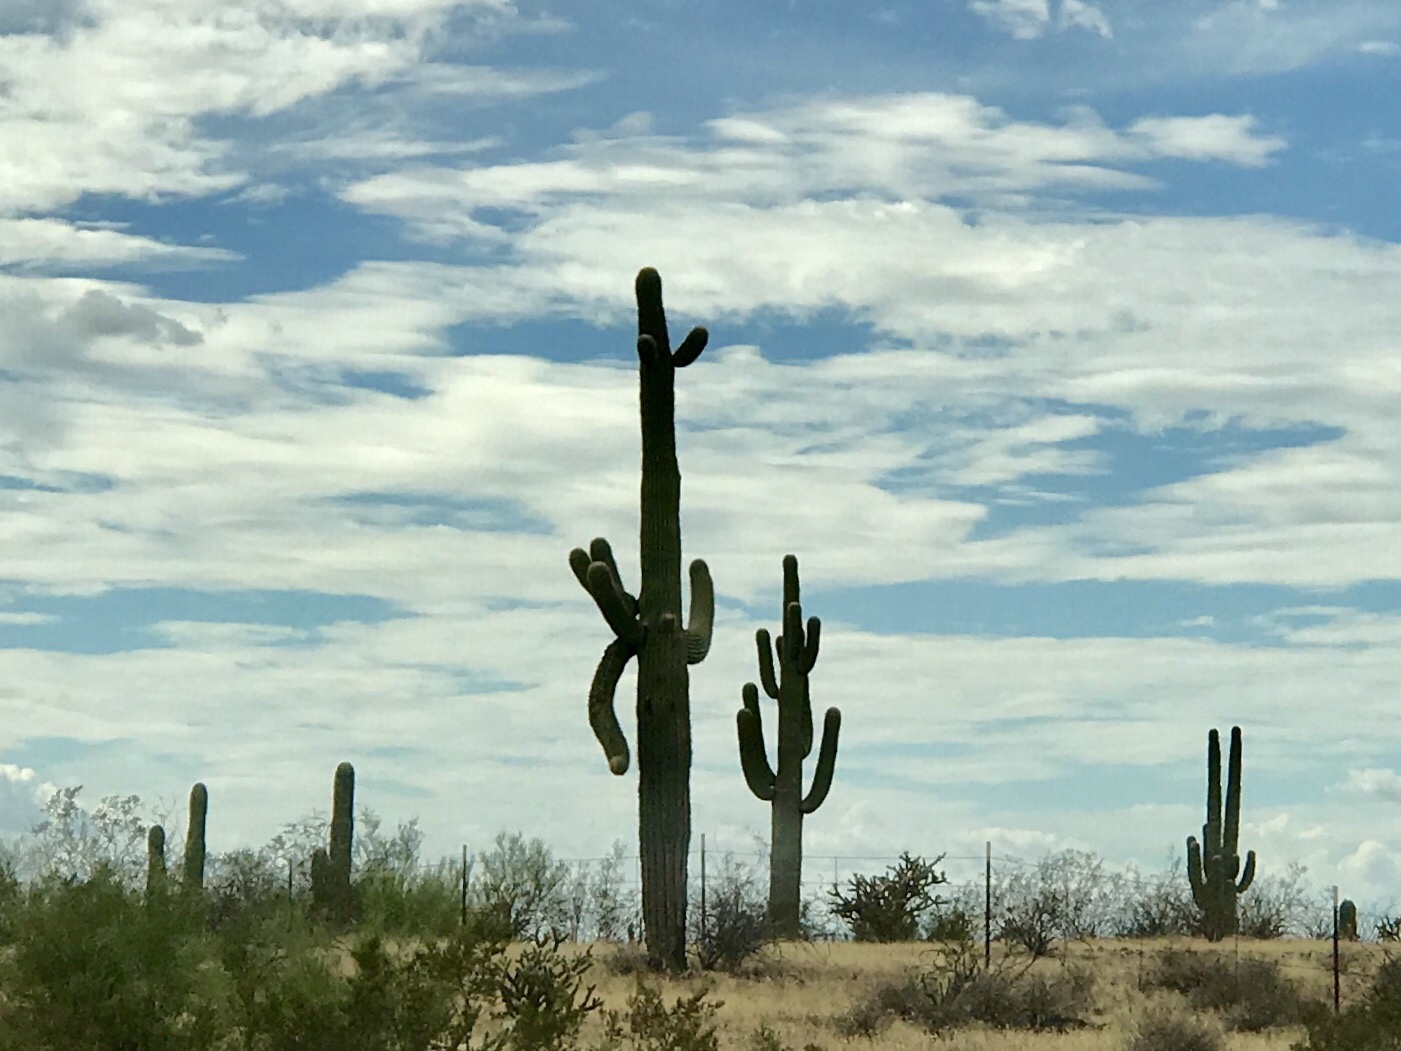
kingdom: Plantae
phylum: Tracheophyta
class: Magnoliopsida
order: Caryophyllales
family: Cactaceae
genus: Carnegiea
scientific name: Carnegiea gigantea
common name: Saguaro
